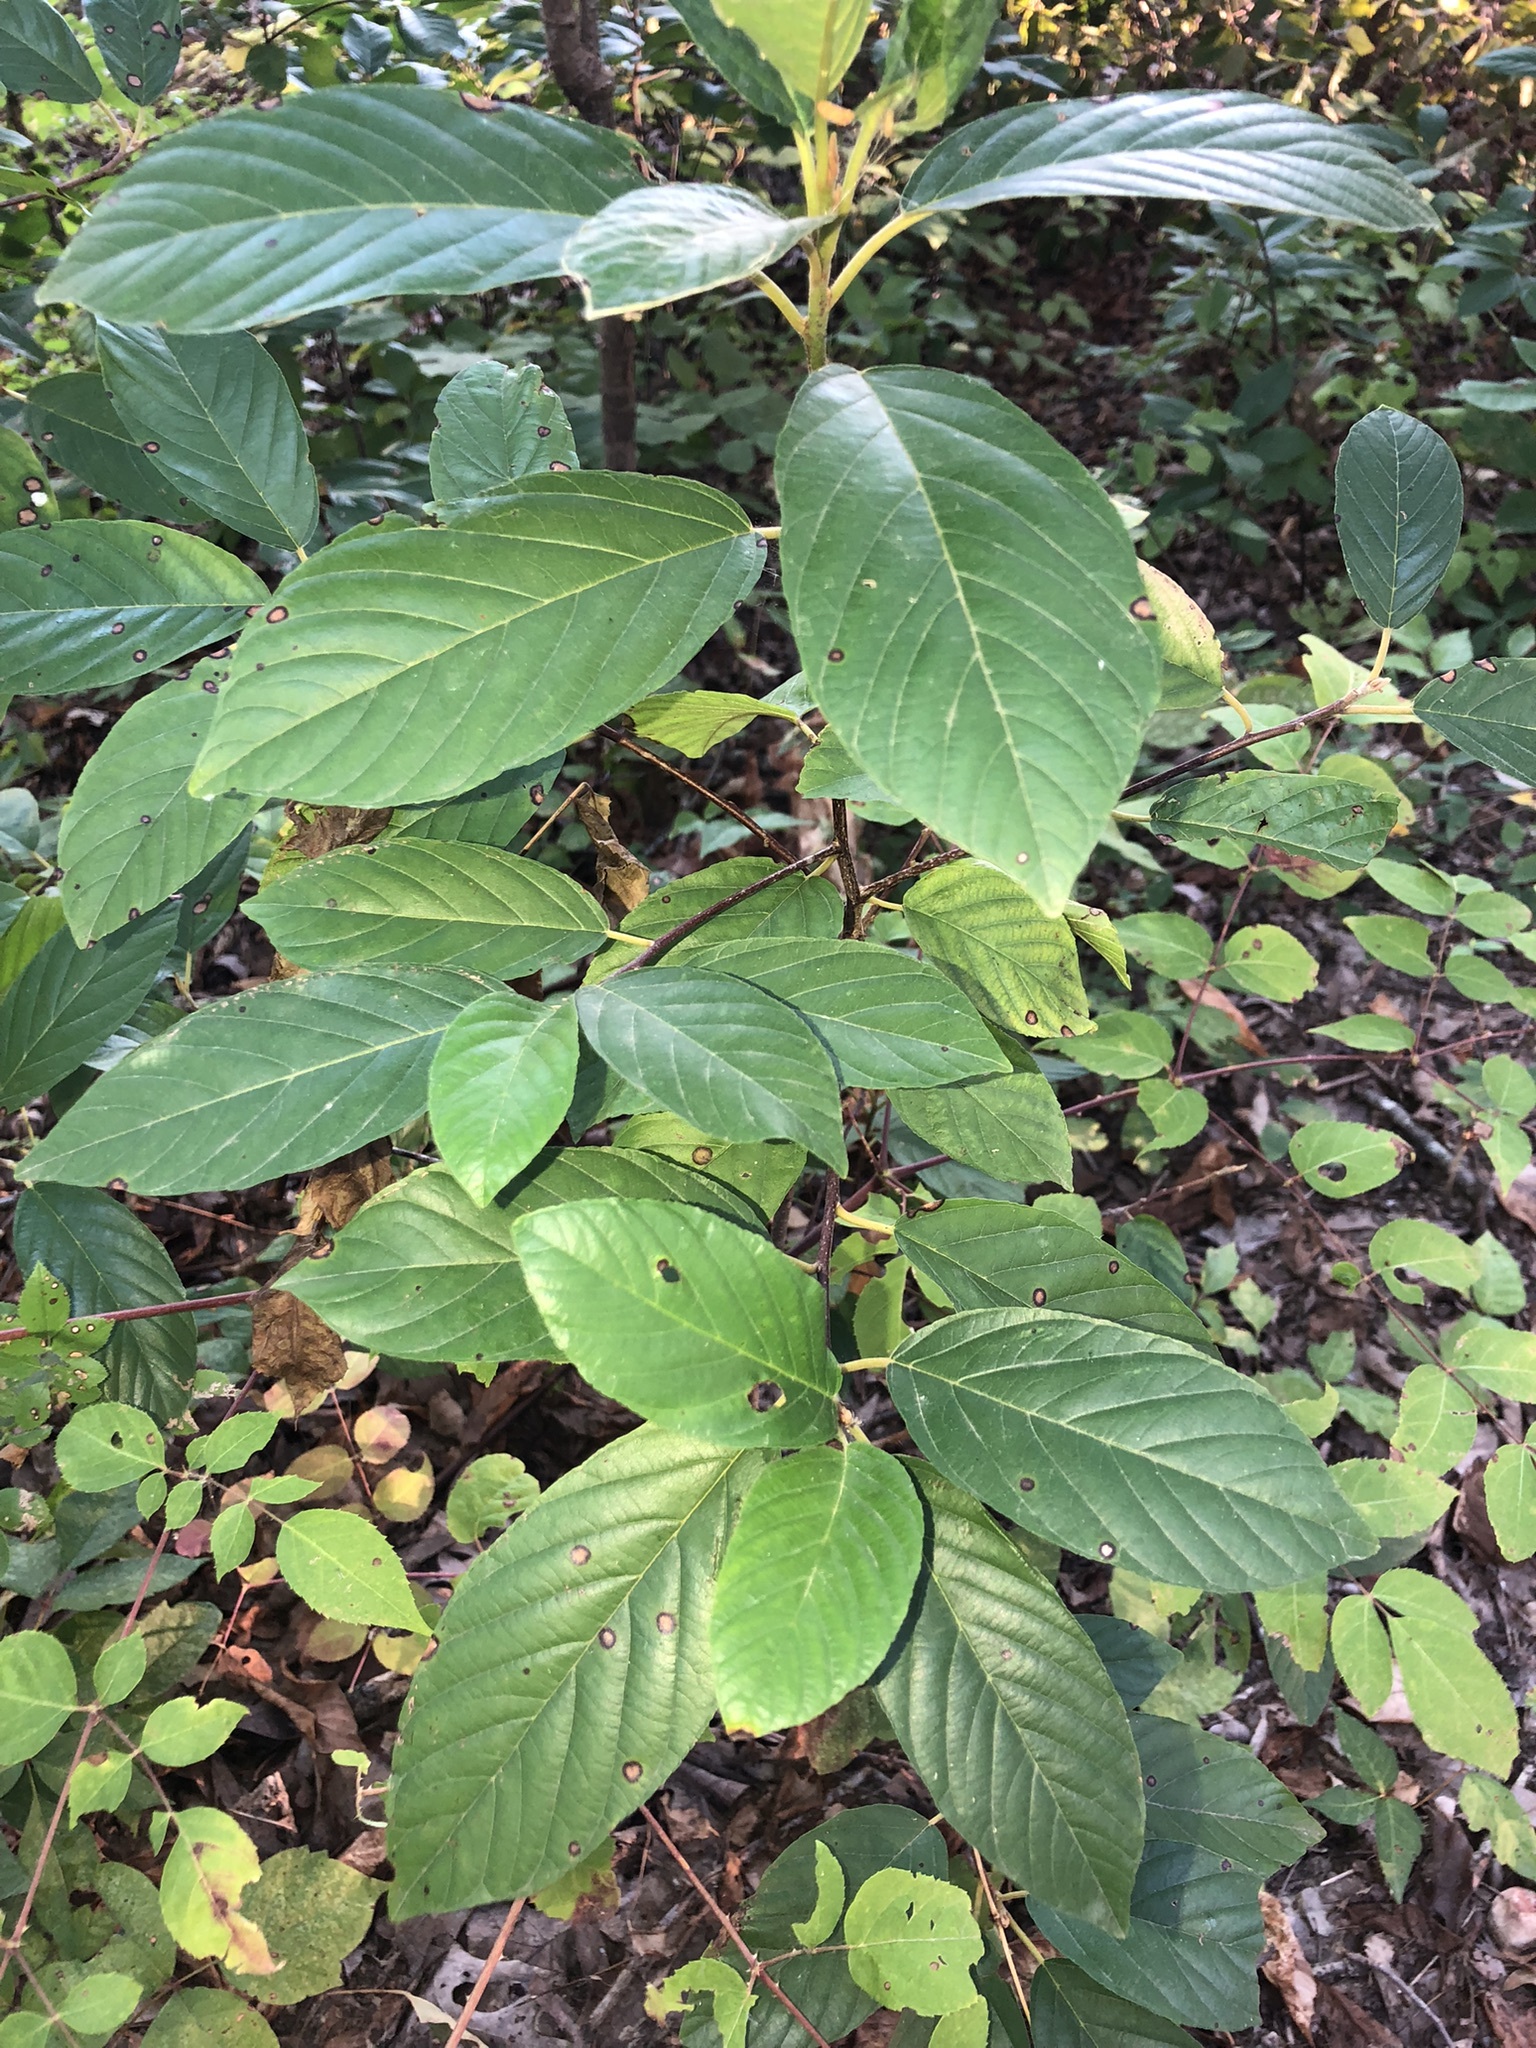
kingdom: Plantae
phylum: Tracheophyta
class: Magnoliopsida
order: Rosales
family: Rhamnaceae
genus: Frangula
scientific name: Frangula caroliniana
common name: Carolina buckthorn
